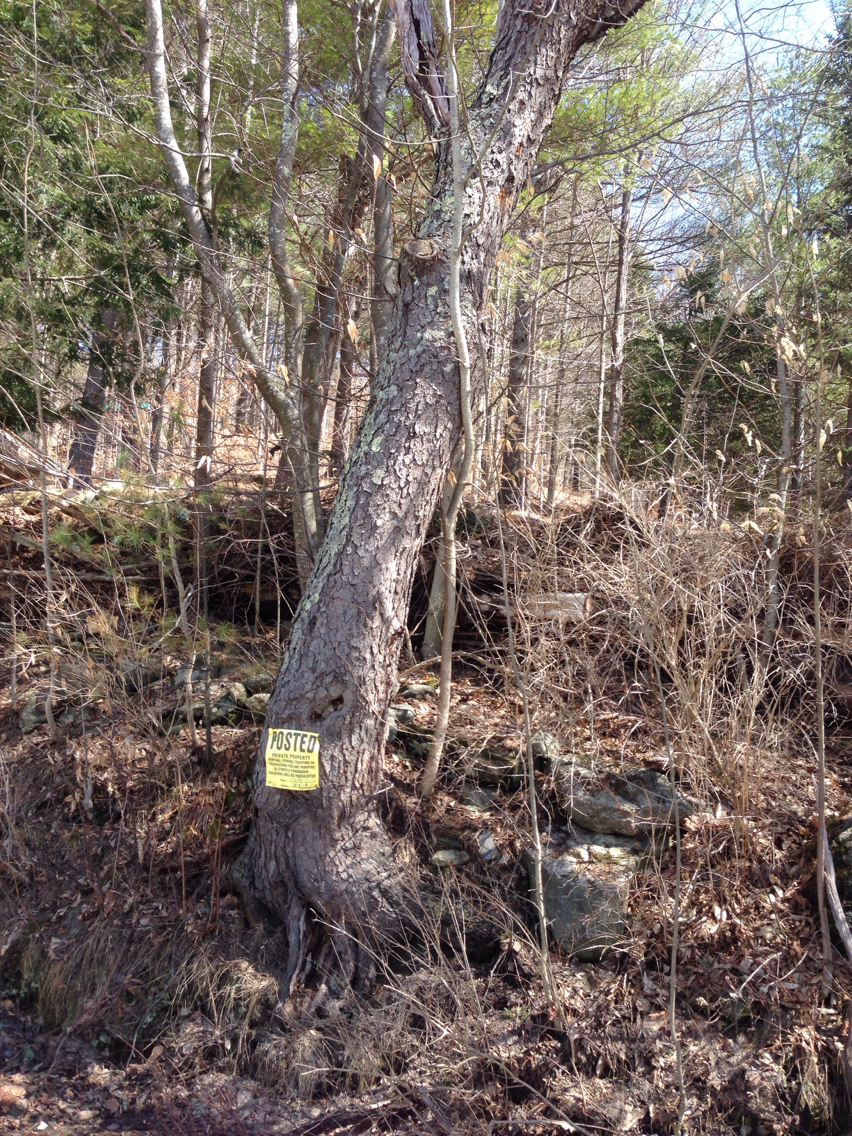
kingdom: Plantae
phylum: Tracheophyta
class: Magnoliopsida
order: Rosales
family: Rosaceae
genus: Prunus
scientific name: Prunus serotina
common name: Black cherry
